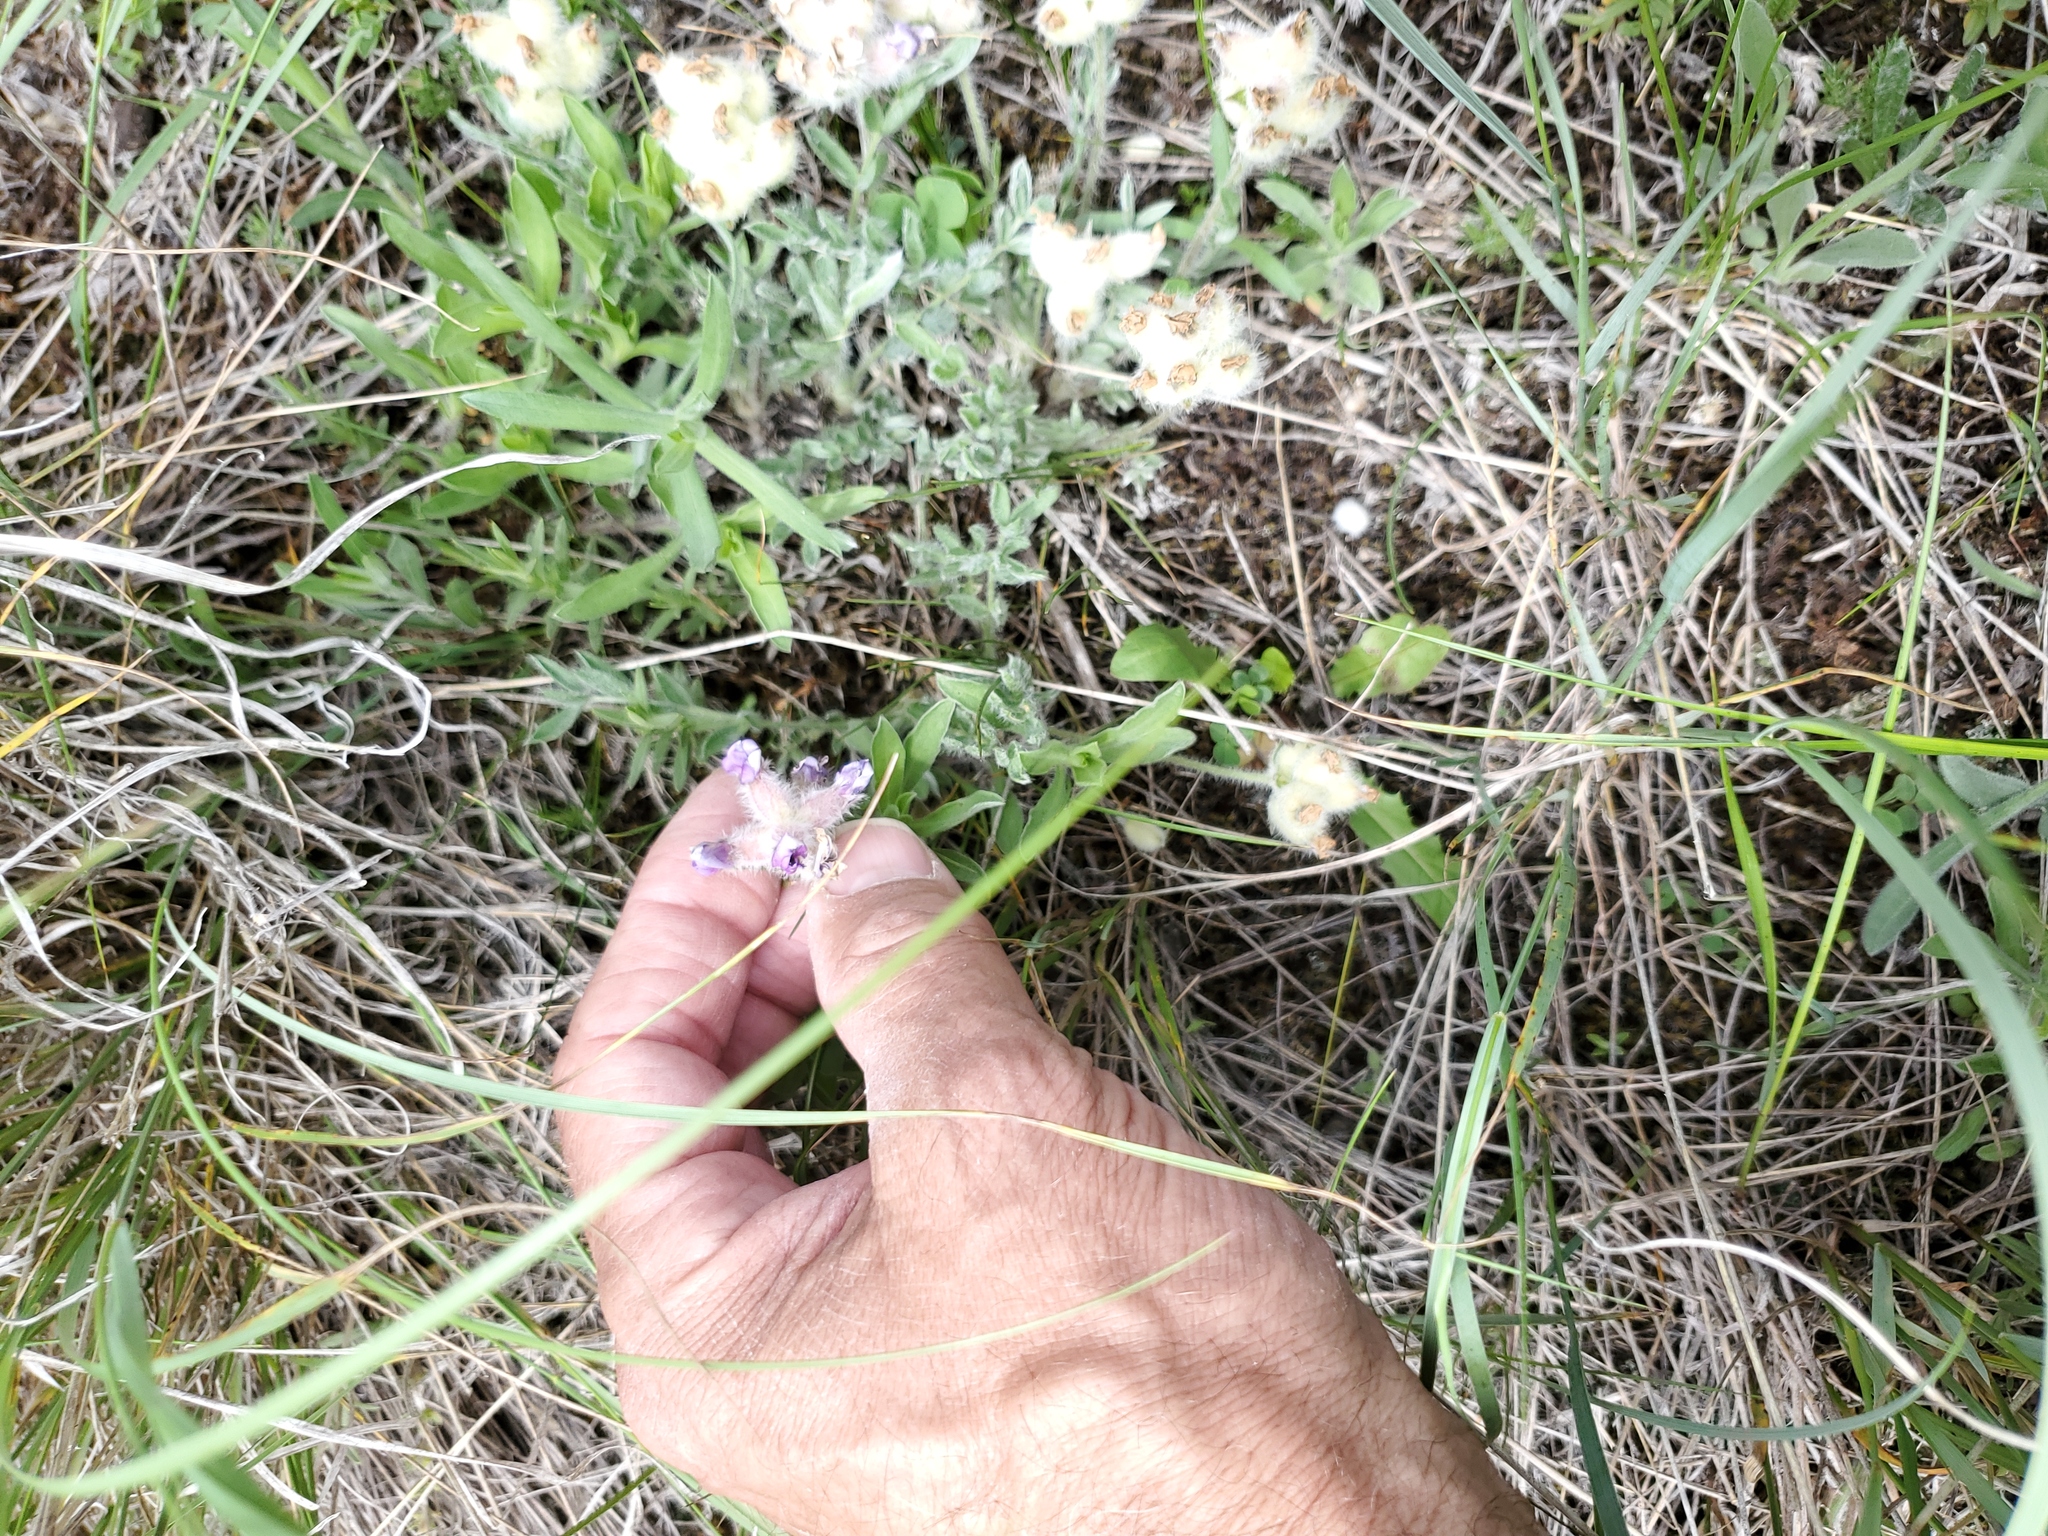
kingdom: Plantae
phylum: Tracheophyta
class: Magnoliopsida
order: Fabales
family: Fabaceae
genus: Oxytropis
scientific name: Oxytropis lagopus
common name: Hare's-foot locoweed
